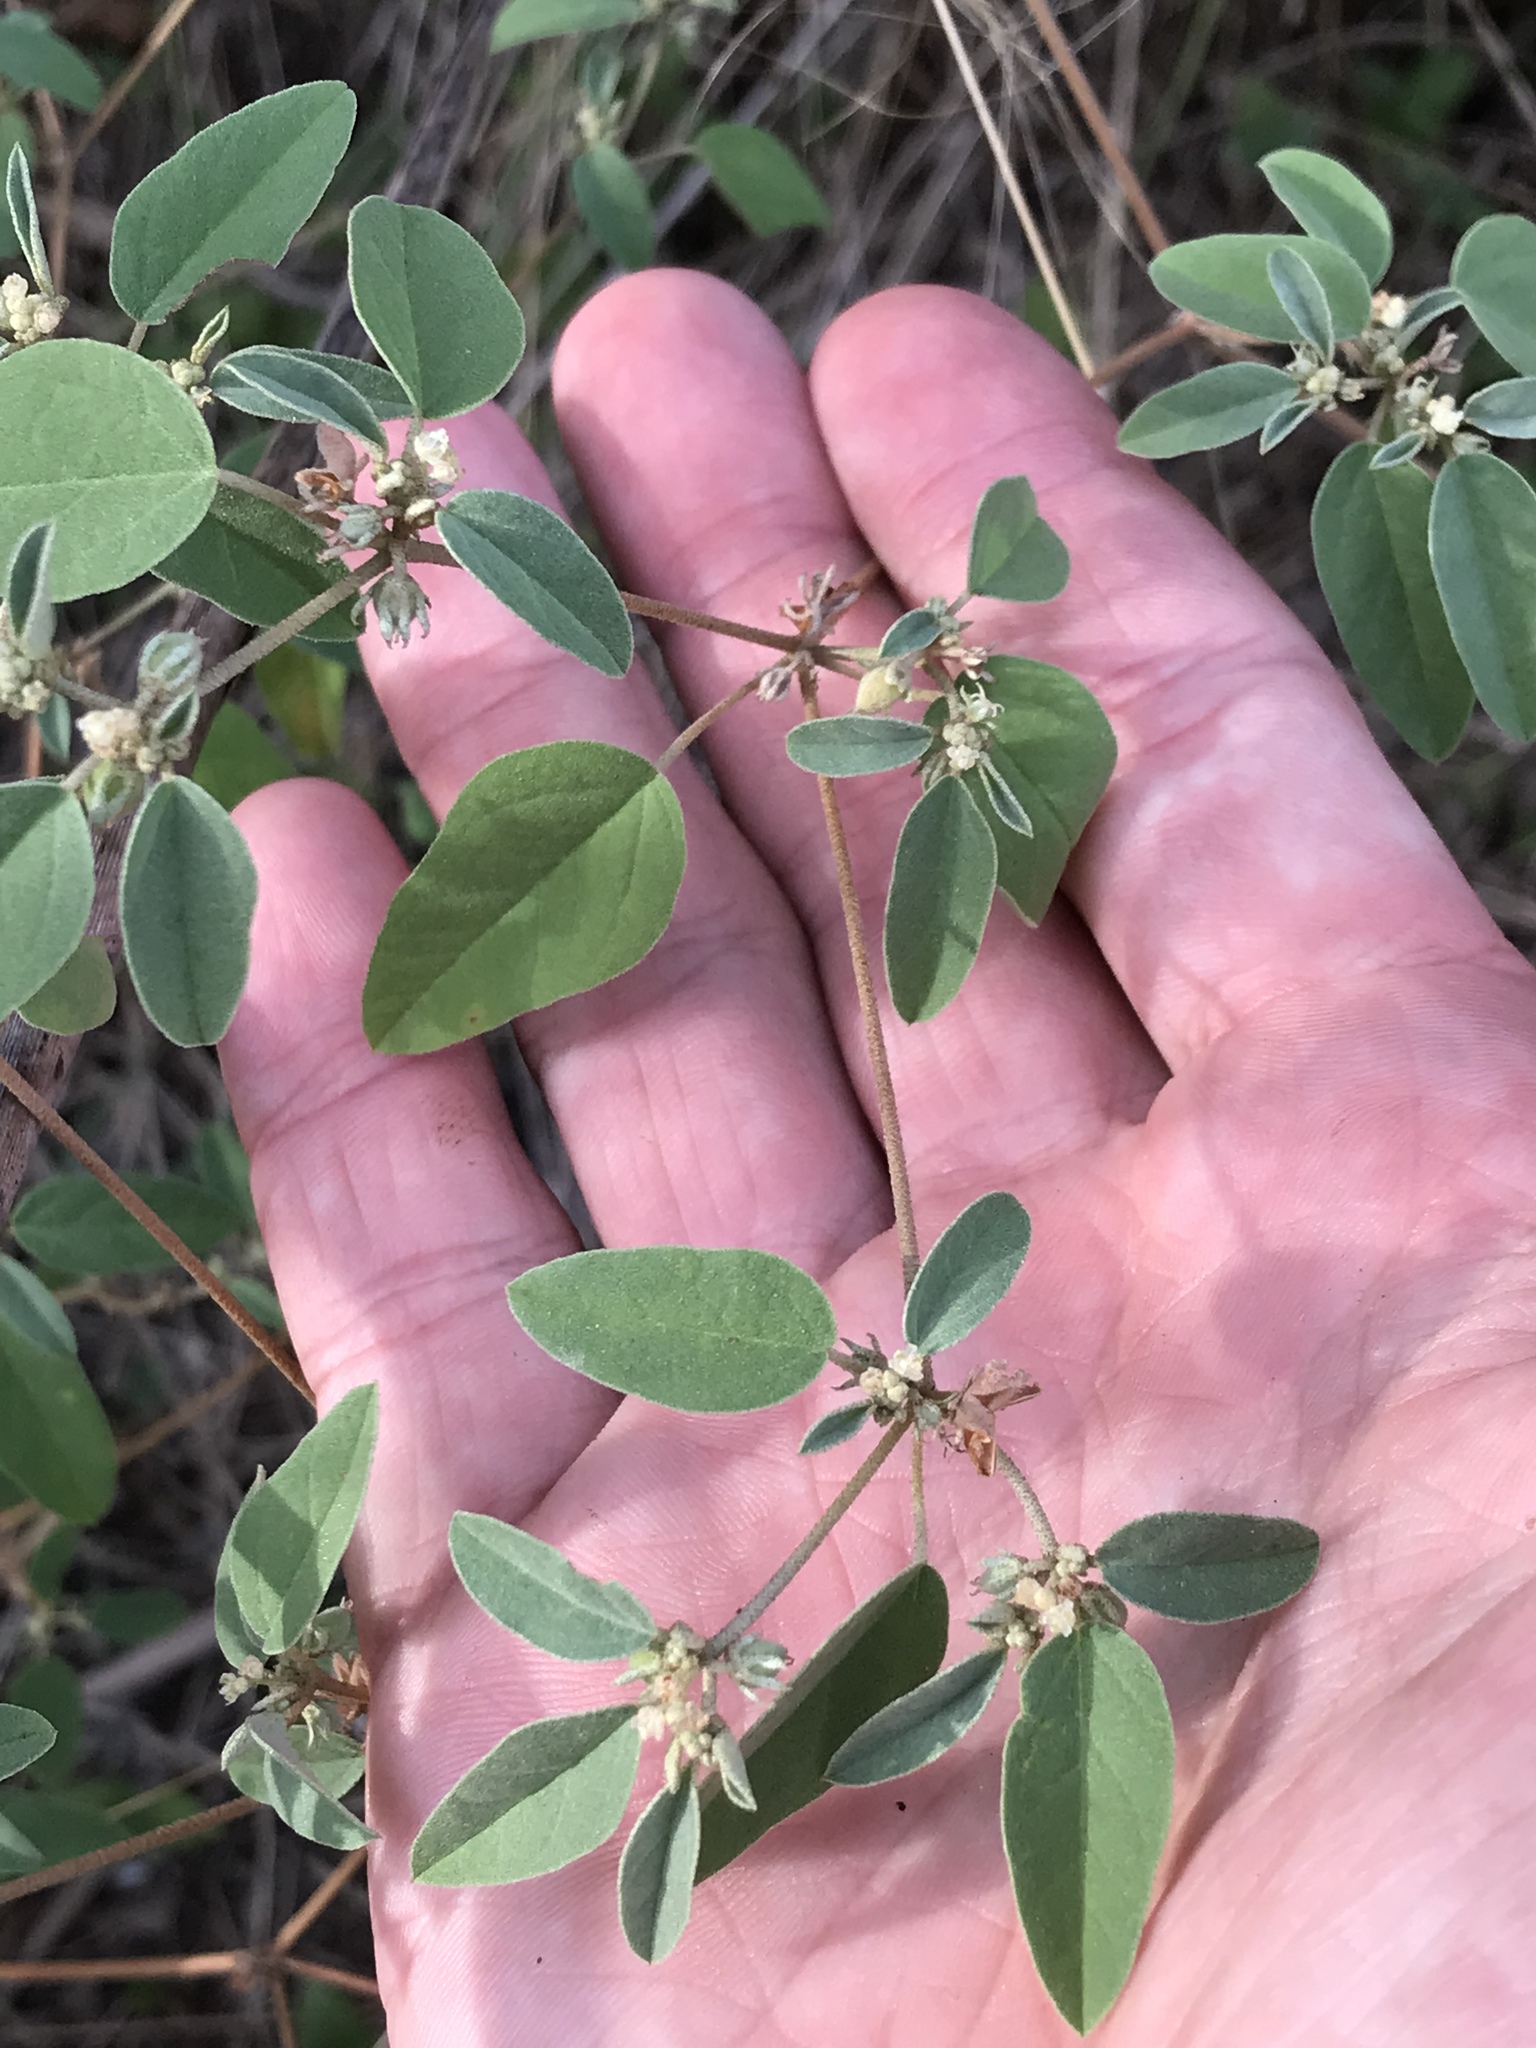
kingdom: Plantae
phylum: Tracheophyta
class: Magnoliopsida
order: Malpighiales
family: Euphorbiaceae
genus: Croton
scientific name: Croton monanthogynus
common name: One-seed croton
